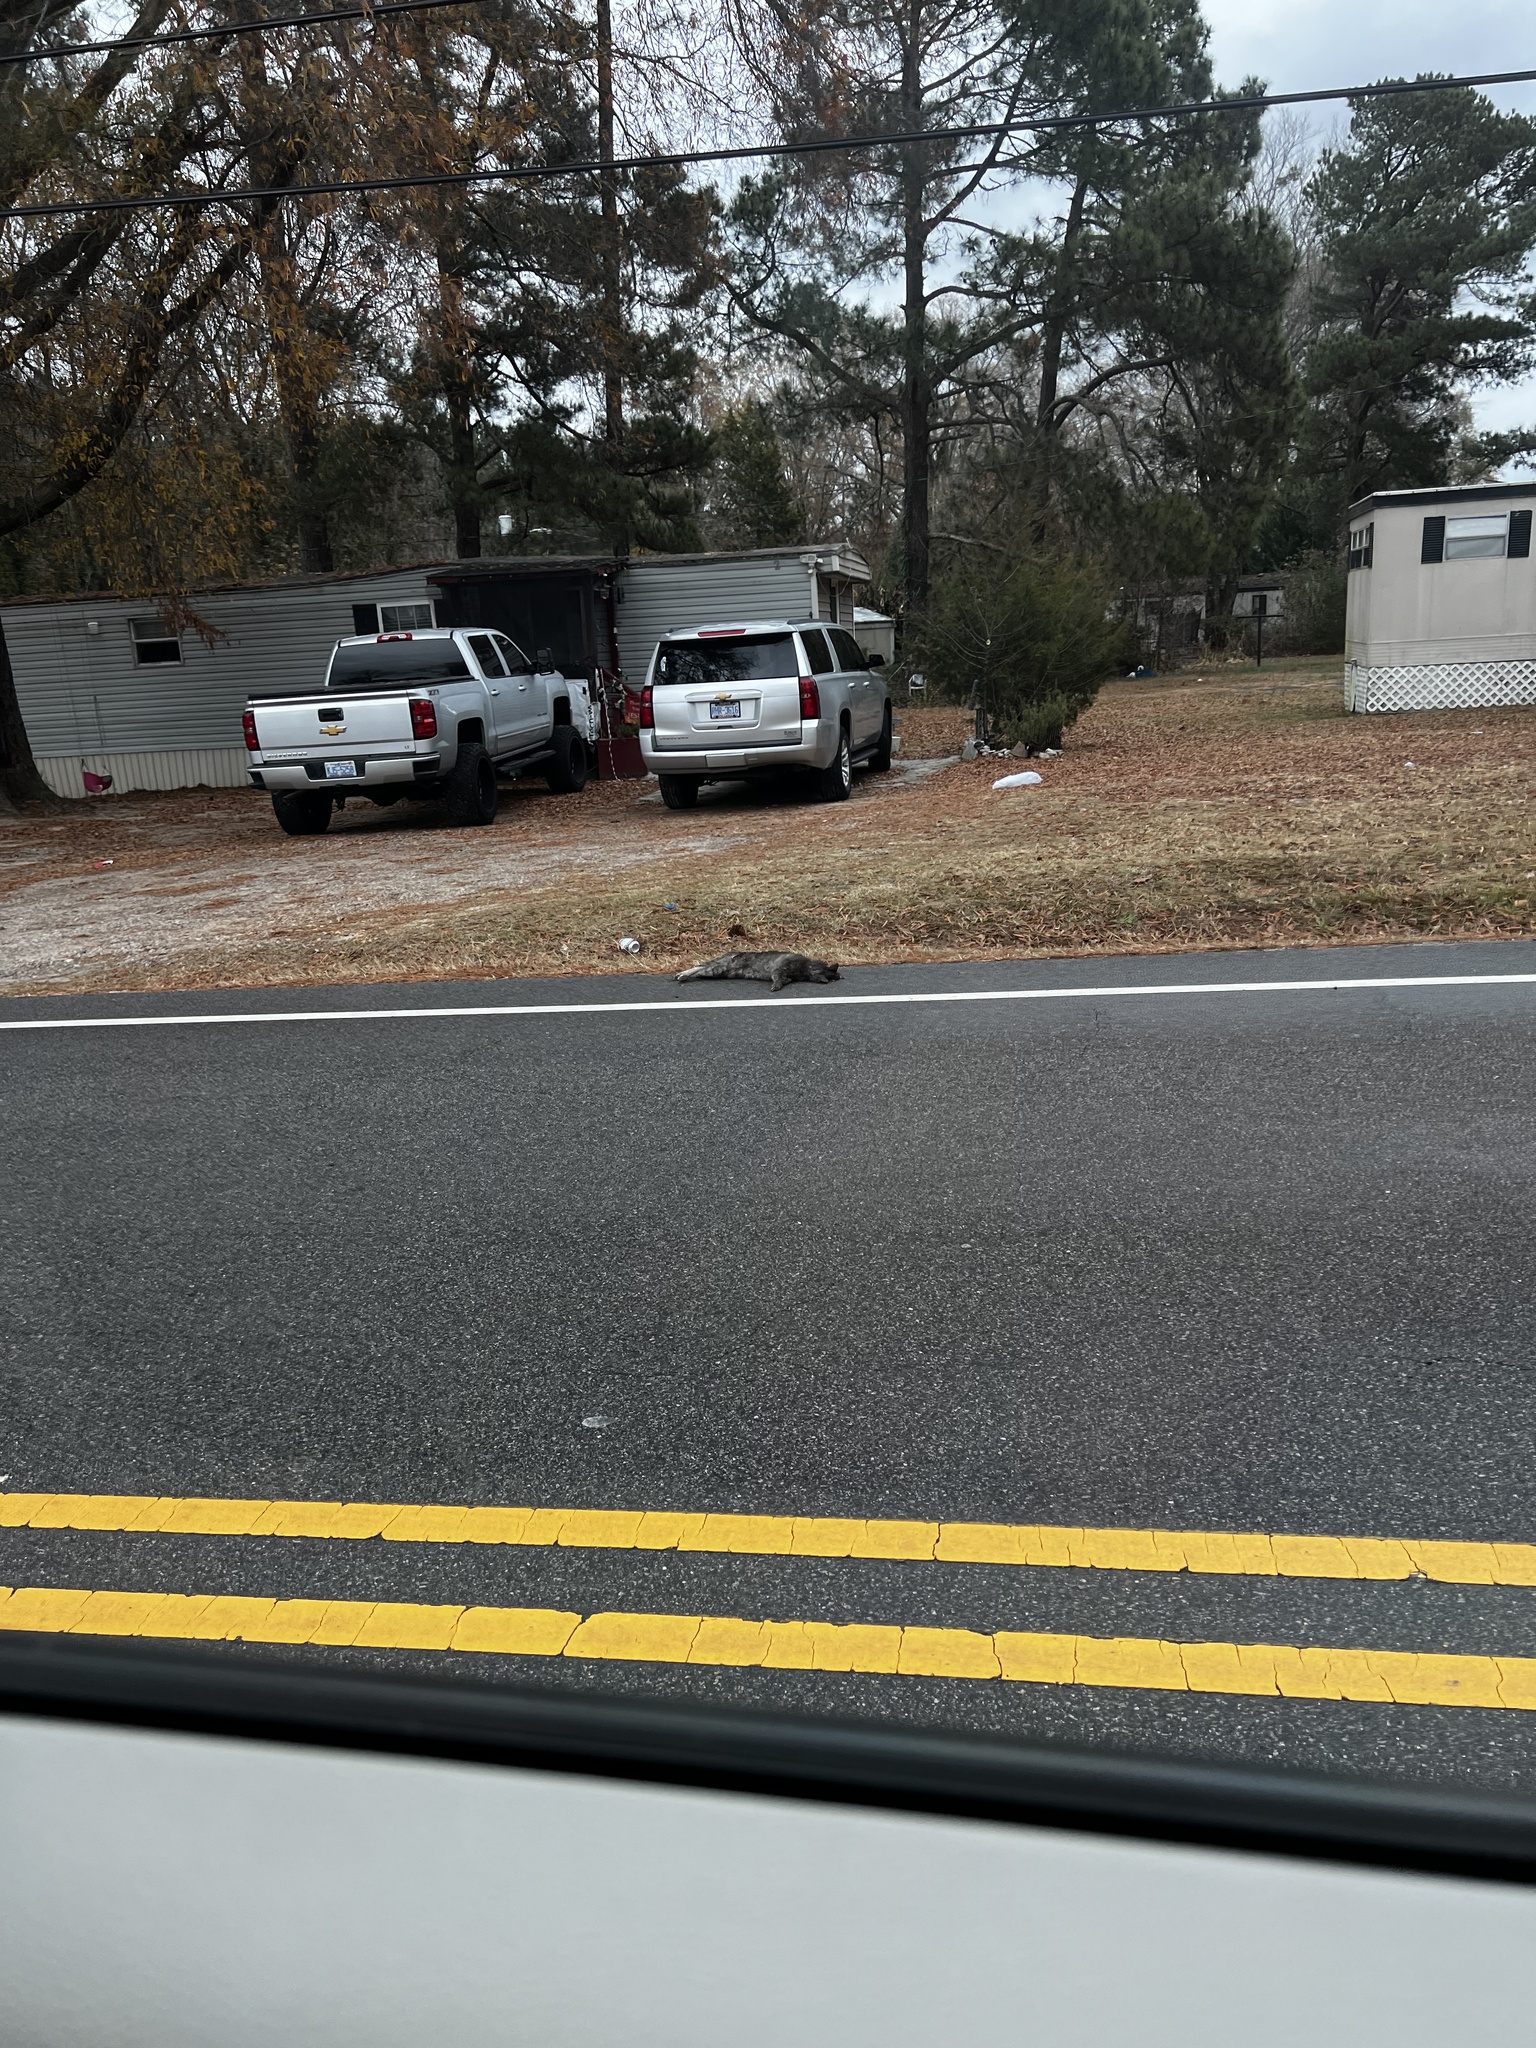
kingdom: Animalia
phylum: Chordata
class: Mammalia
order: Carnivora
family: Felidae
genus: Felis
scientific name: Felis catus
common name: Domestic cat
